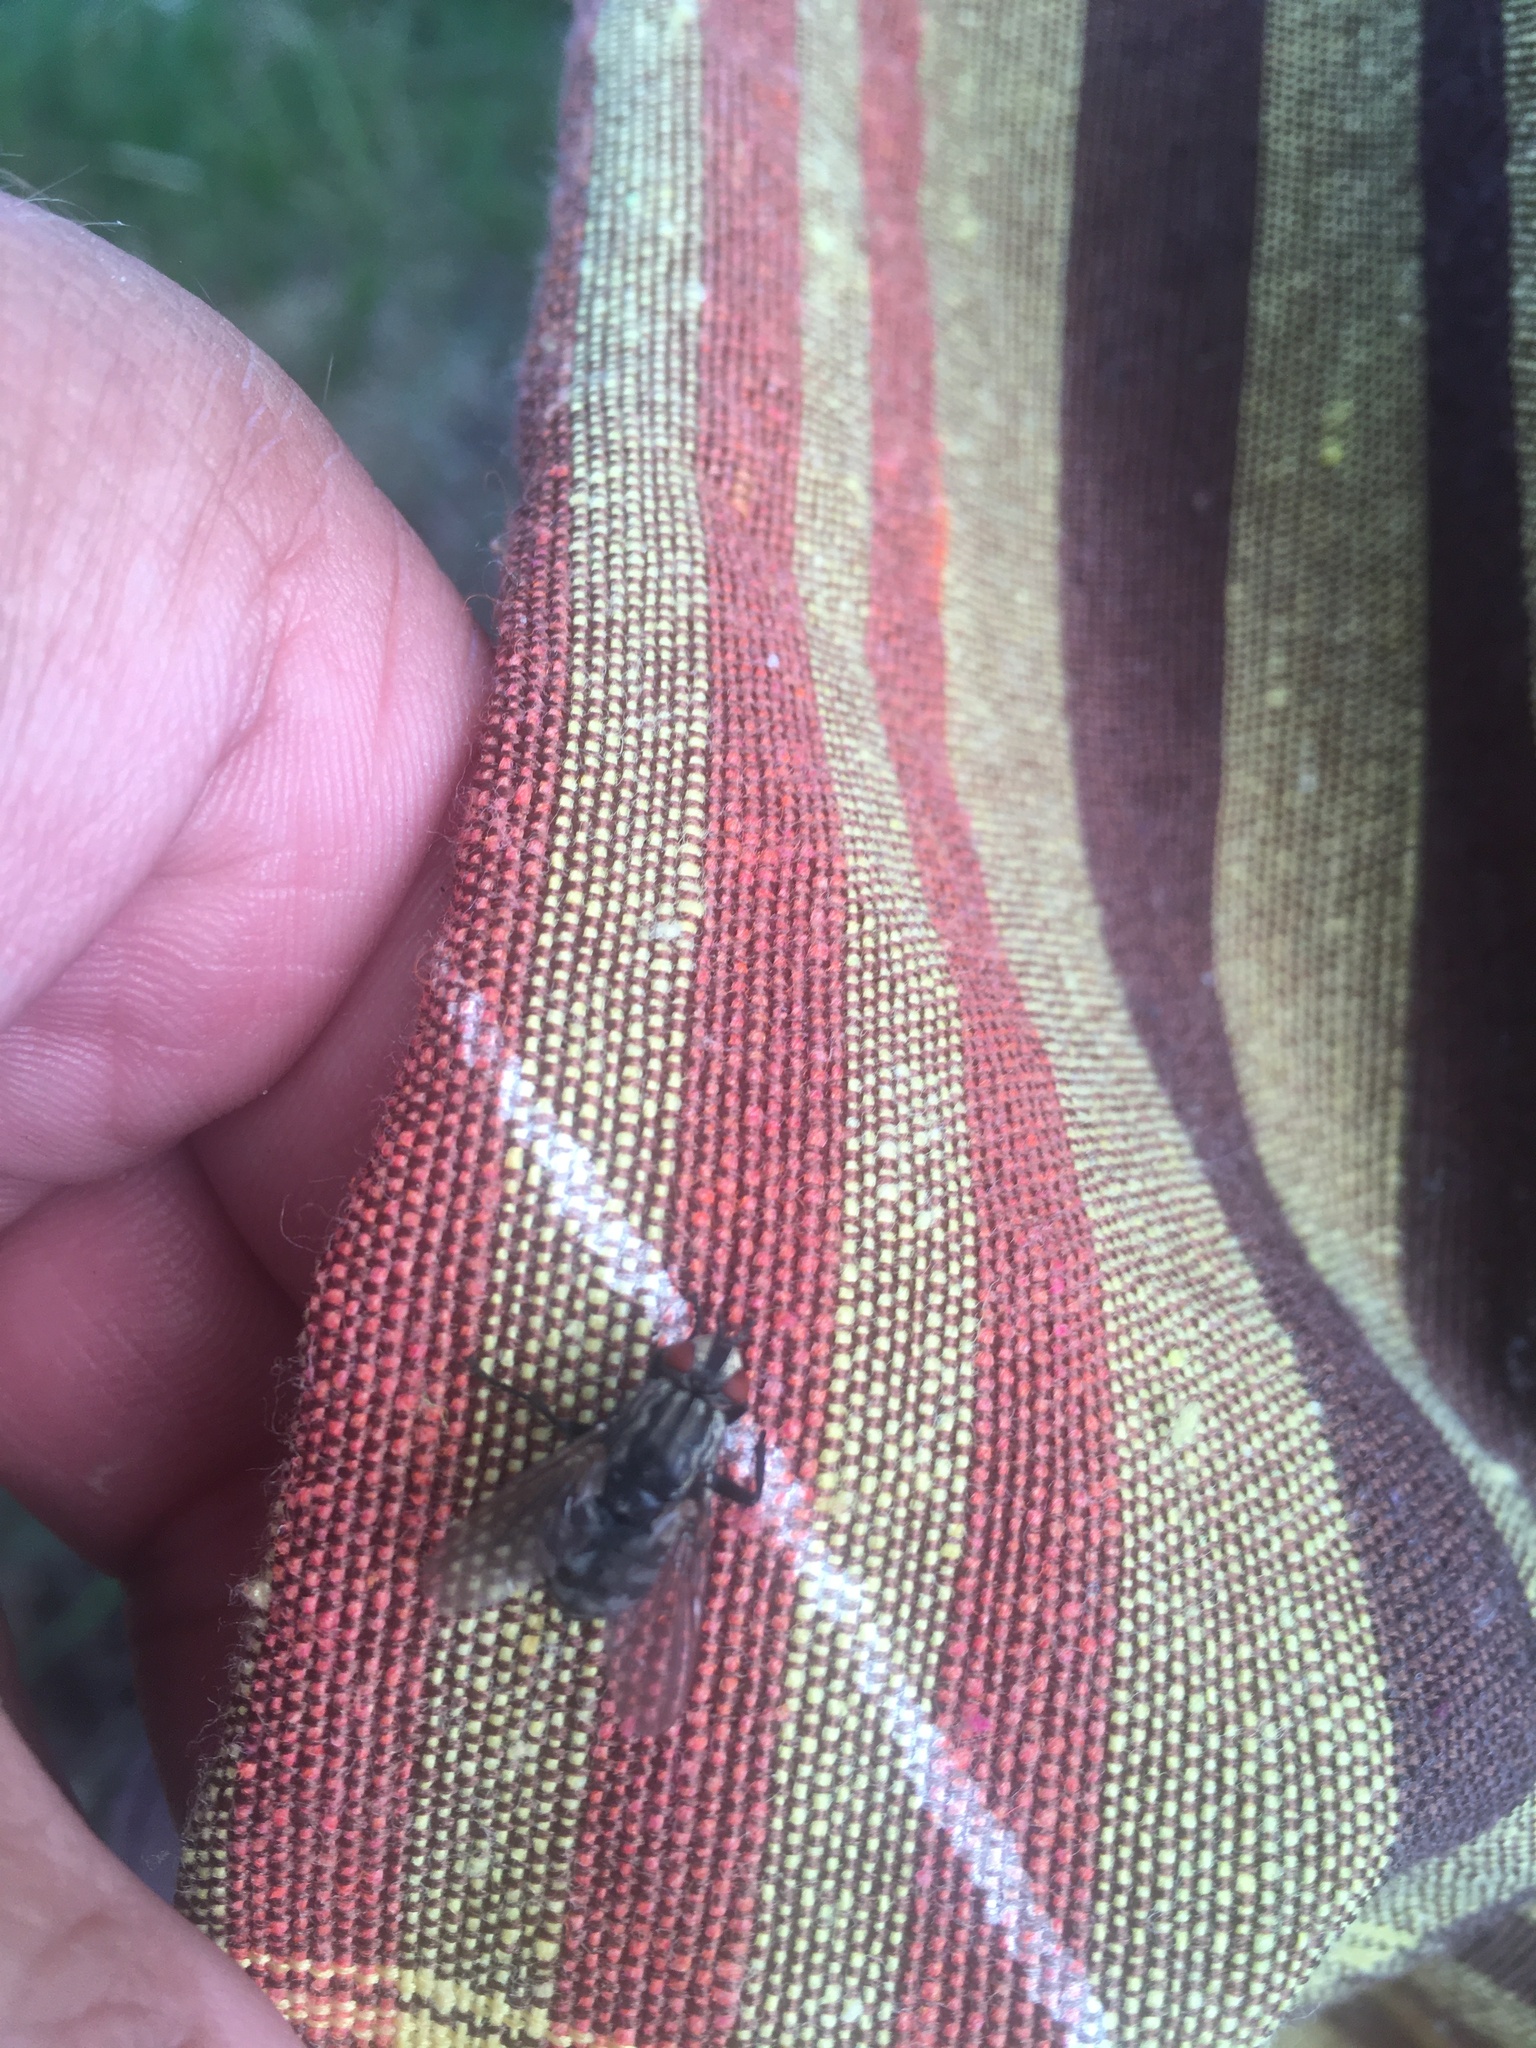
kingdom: Animalia
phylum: Arthropoda
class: Insecta
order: Diptera
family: Sarcophagidae
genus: Sarcophaga
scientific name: Sarcophaga
